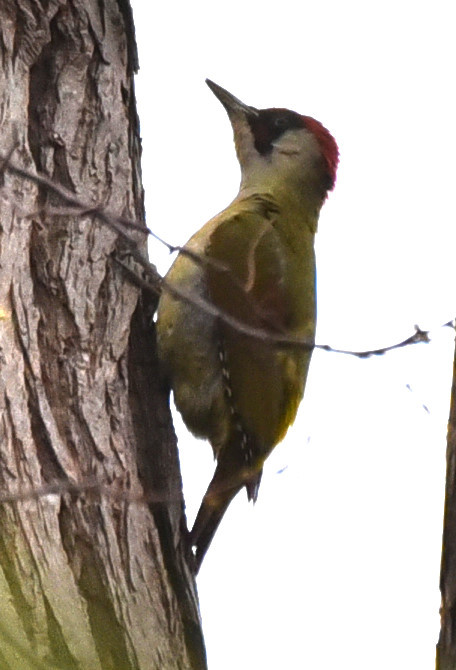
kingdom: Animalia
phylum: Chordata
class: Aves
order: Piciformes
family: Picidae
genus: Picus
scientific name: Picus viridis
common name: European green woodpecker
